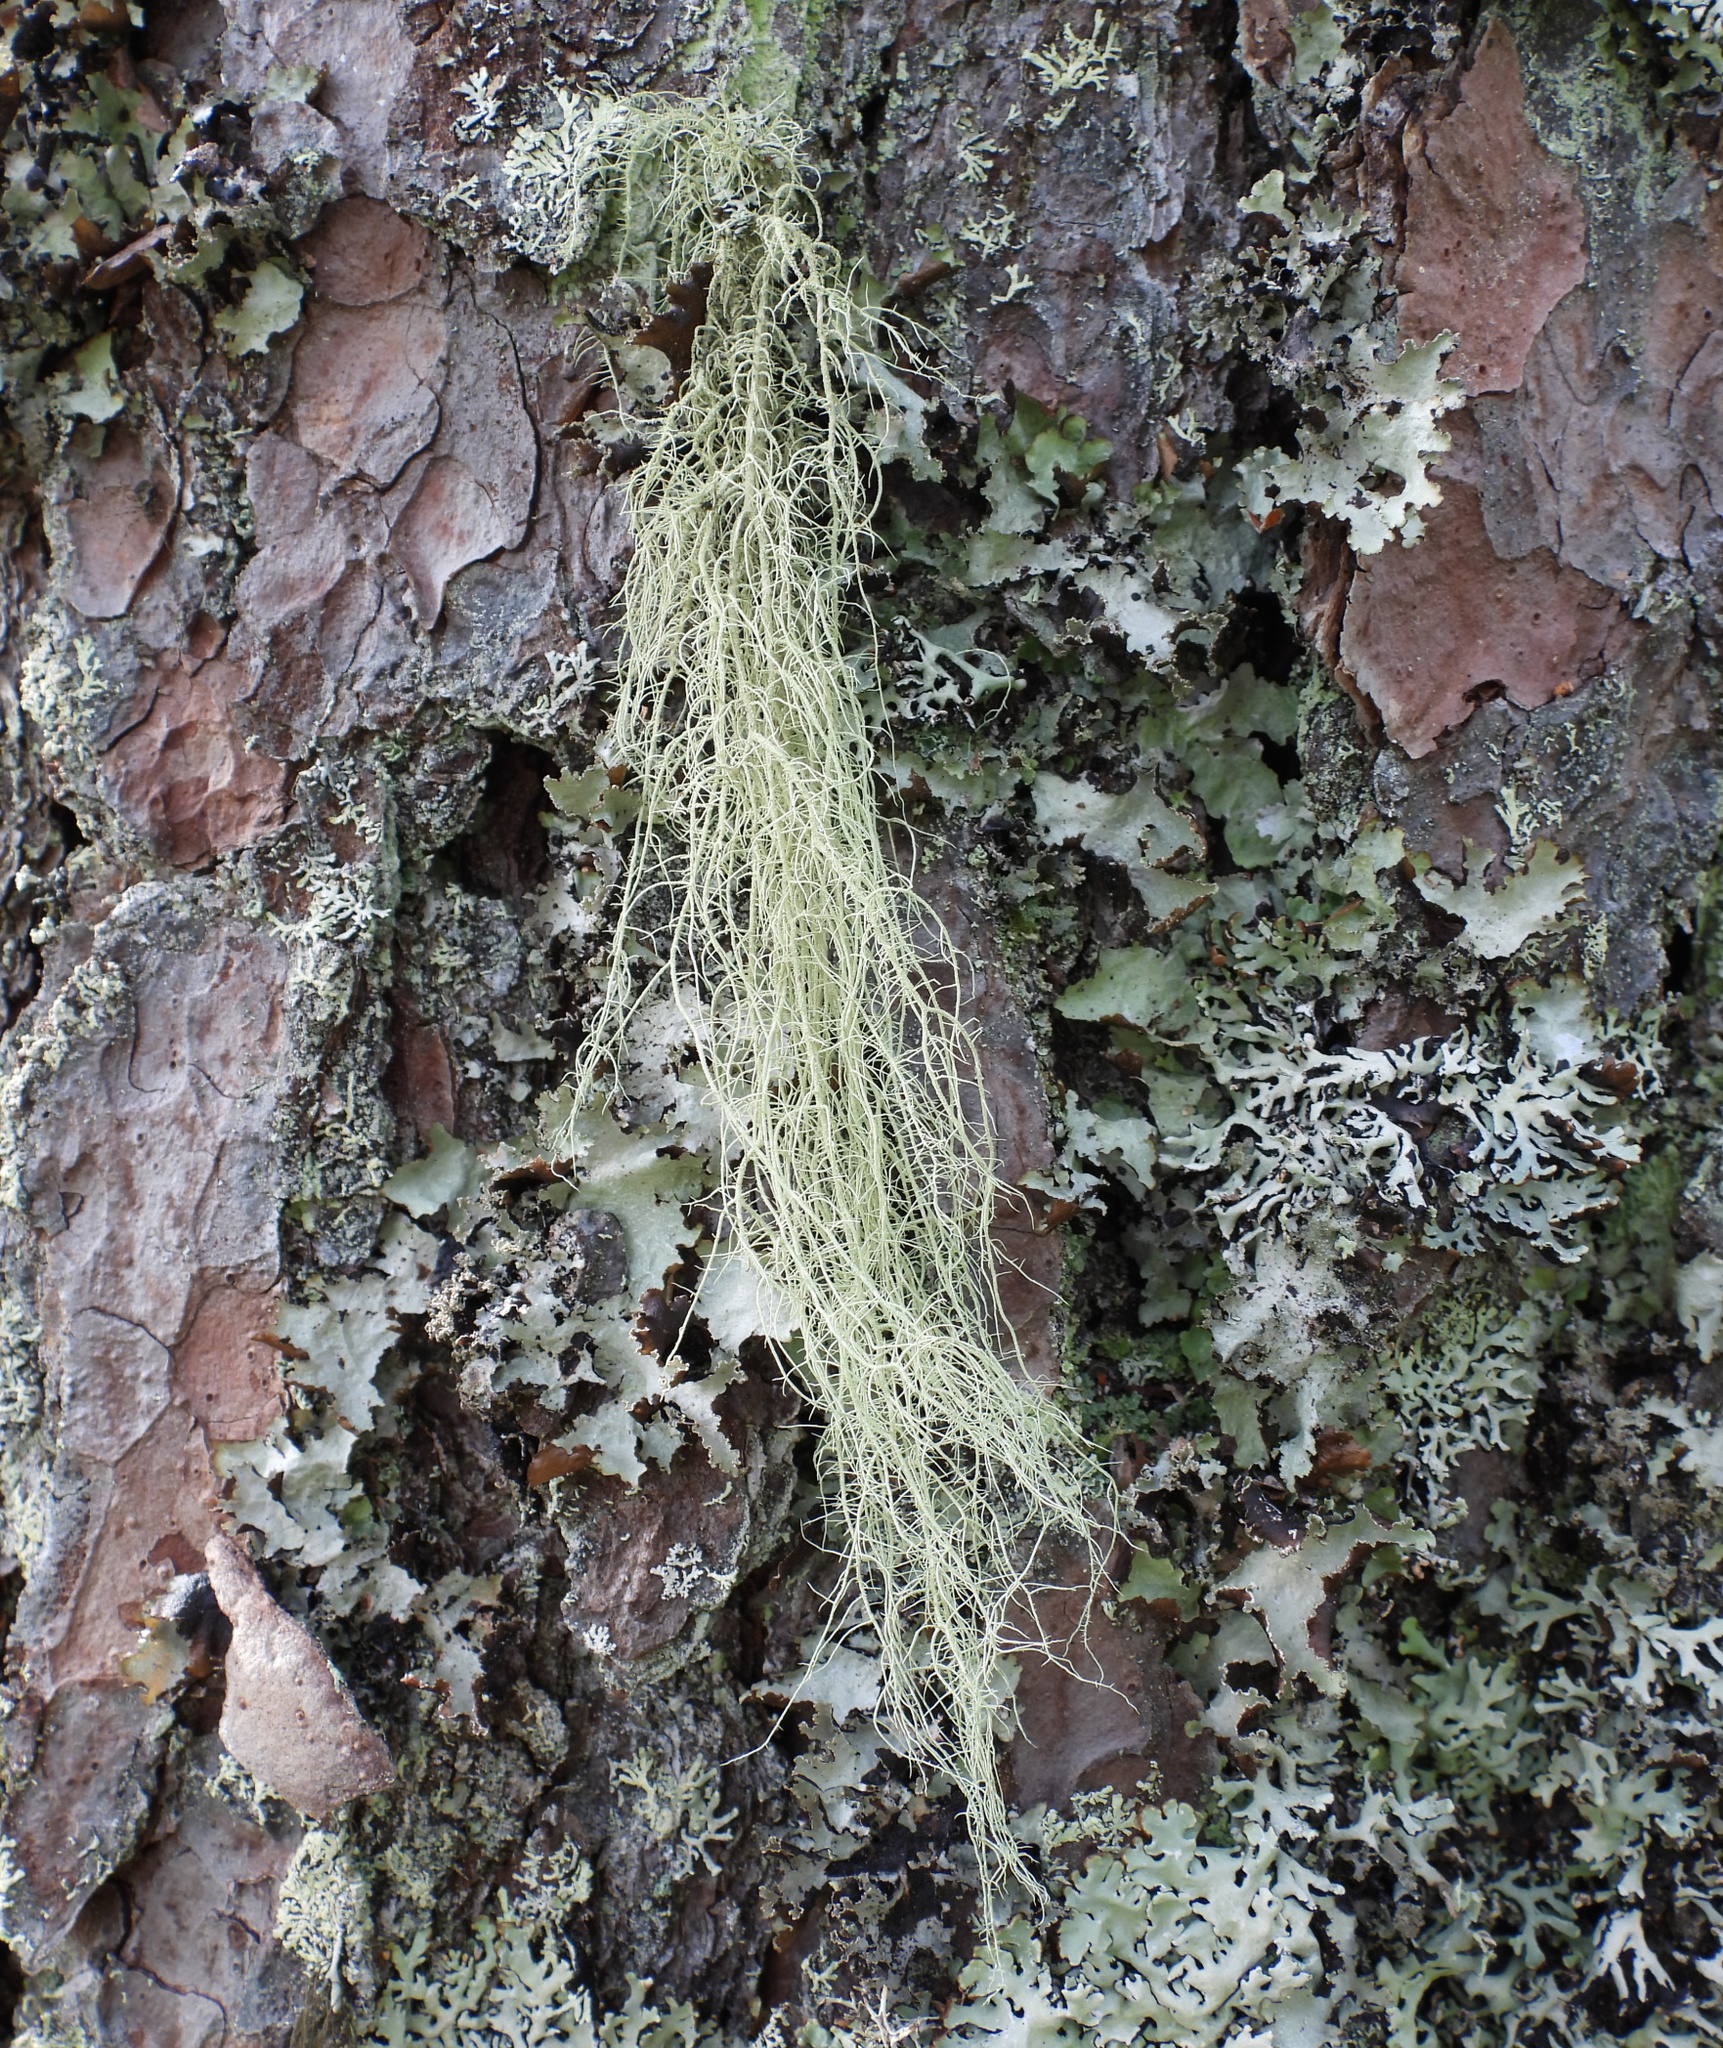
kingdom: Fungi
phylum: Ascomycota
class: Lecanoromycetes
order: Lecanorales
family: Parmeliaceae
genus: Usnea
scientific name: Usnea dasopoga
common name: Fishbone beard lichen
